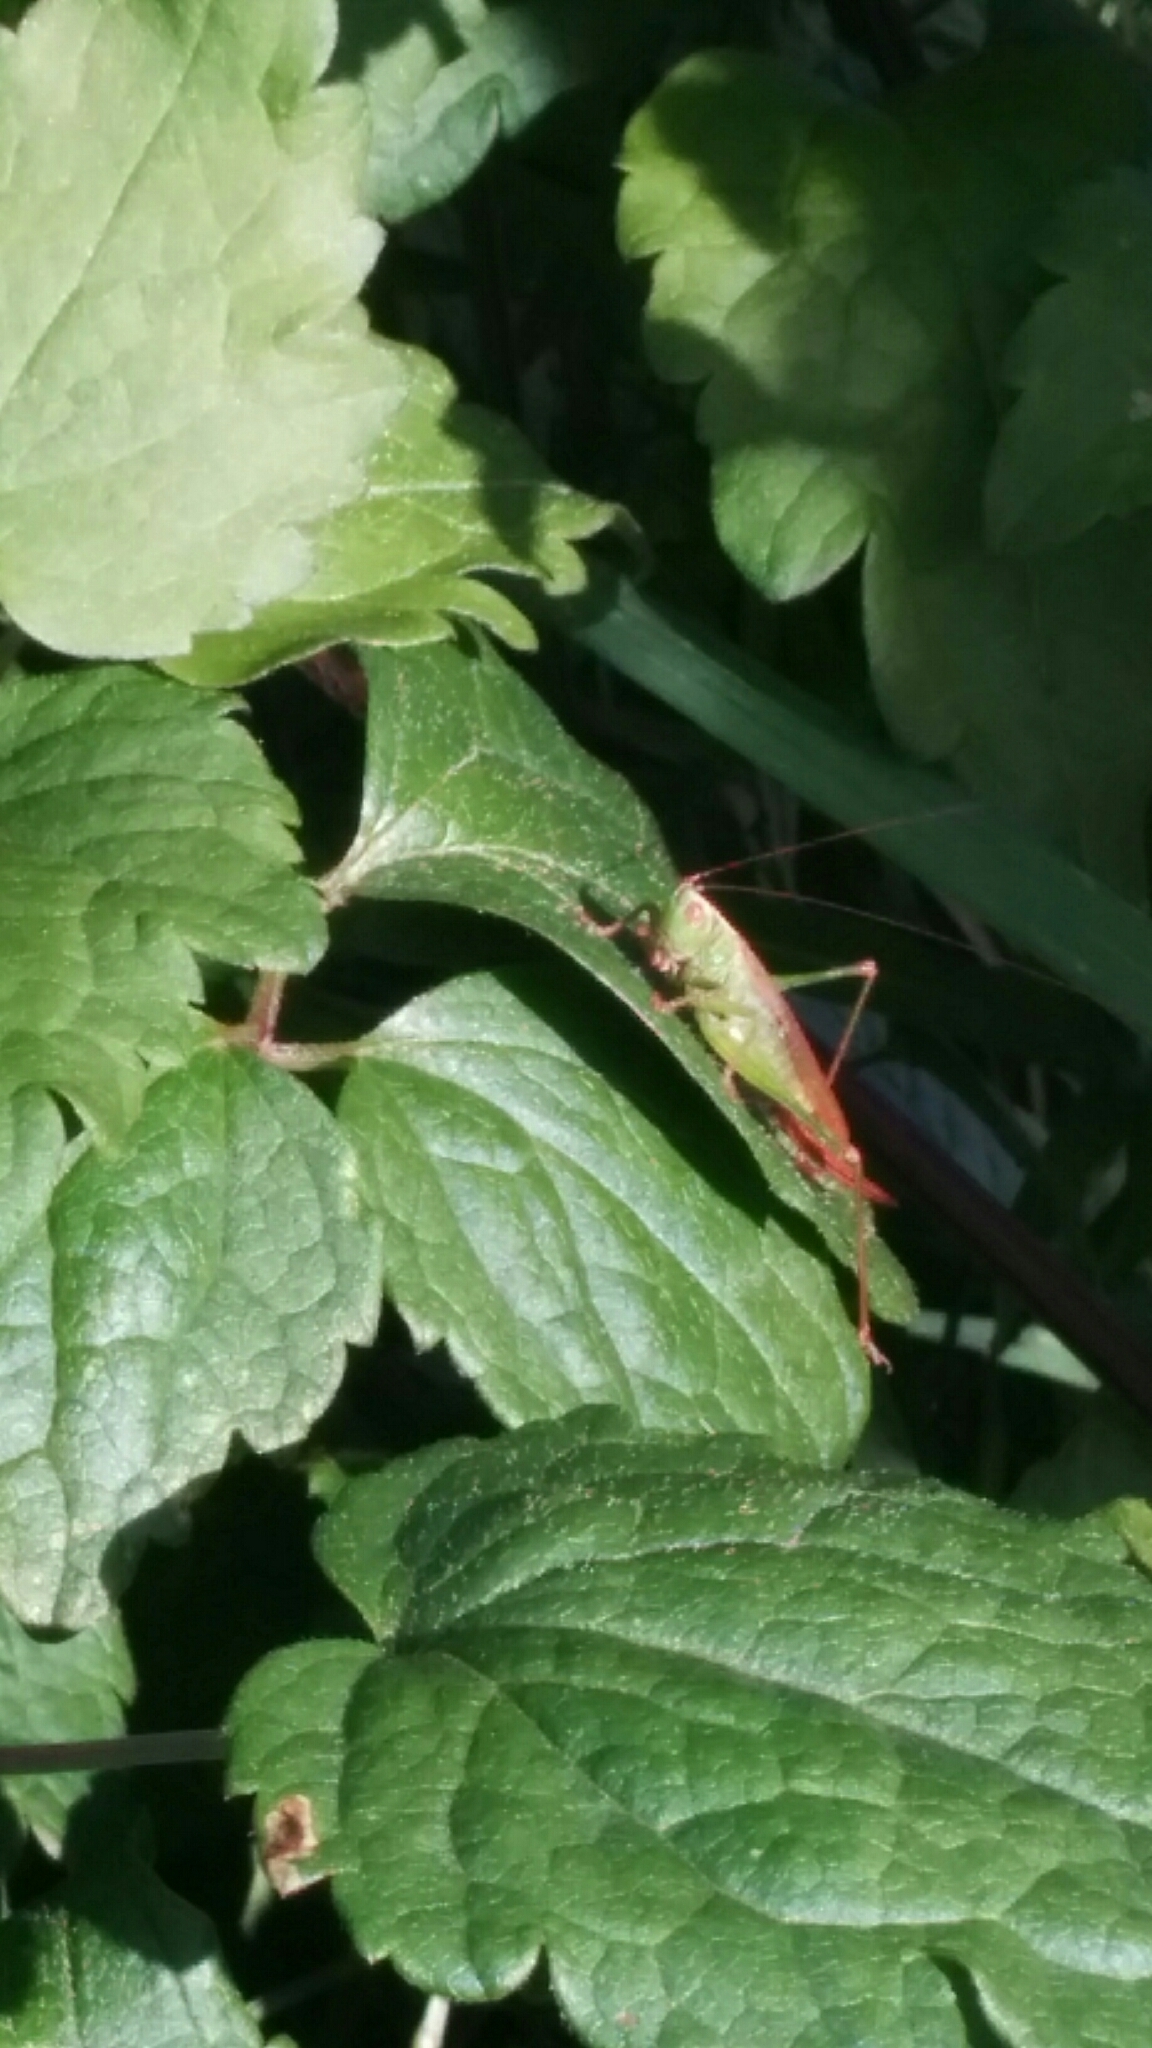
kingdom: Animalia
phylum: Arthropoda
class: Insecta
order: Orthoptera
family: Tettigoniidae
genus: Conocephalus
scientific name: Conocephalus fuscus
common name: Long-winged conehead
